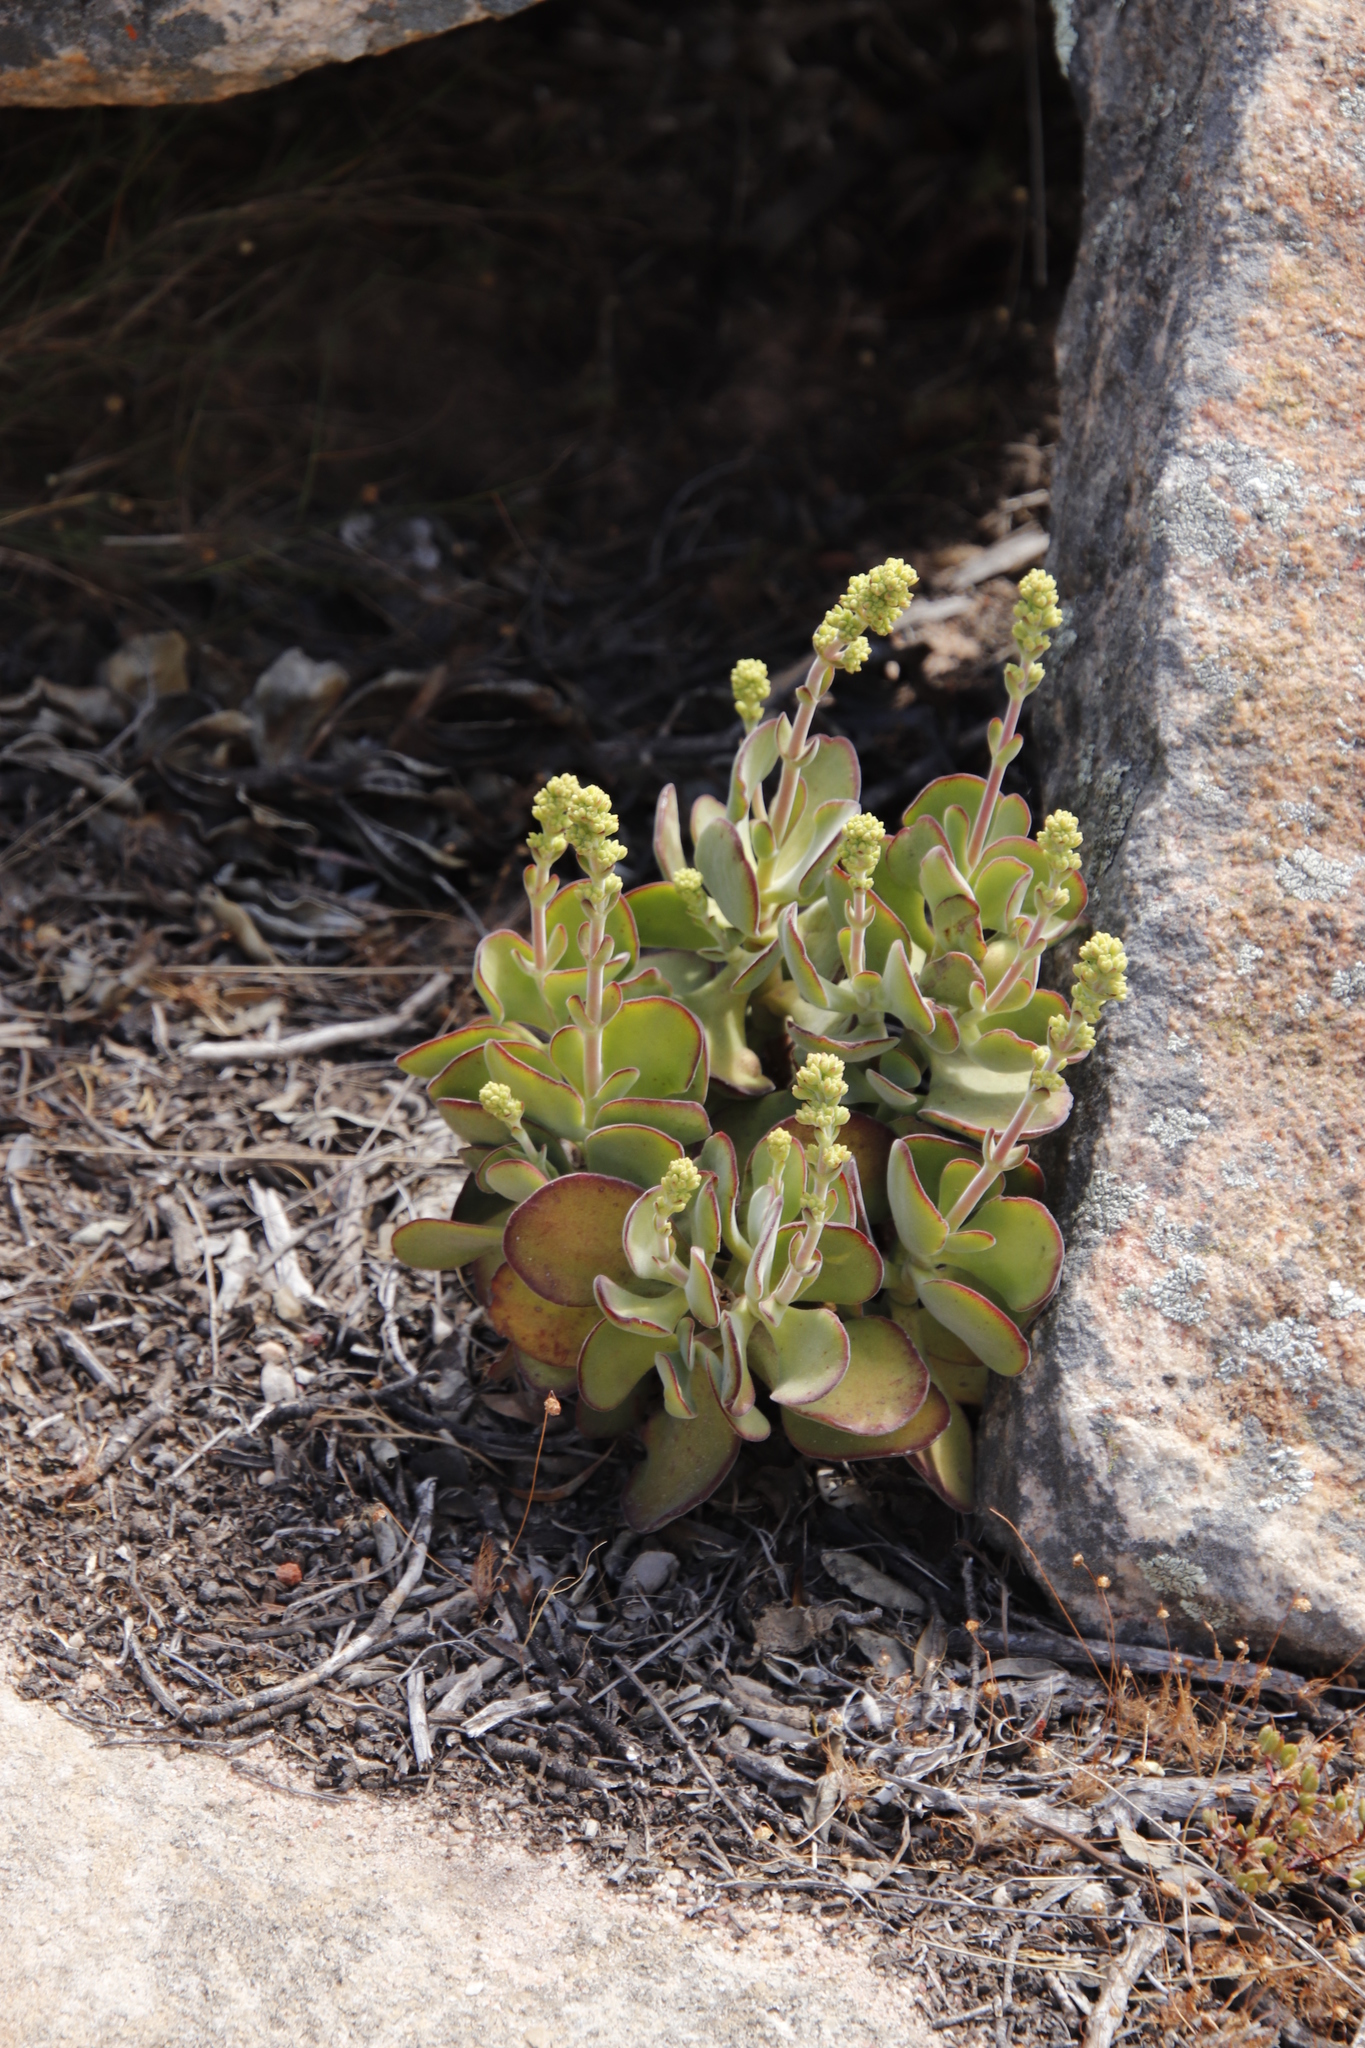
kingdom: Plantae
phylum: Tracheophyta
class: Magnoliopsida
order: Saxifragales
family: Crassulaceae
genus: Crassula
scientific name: Crassula atropurpurea
